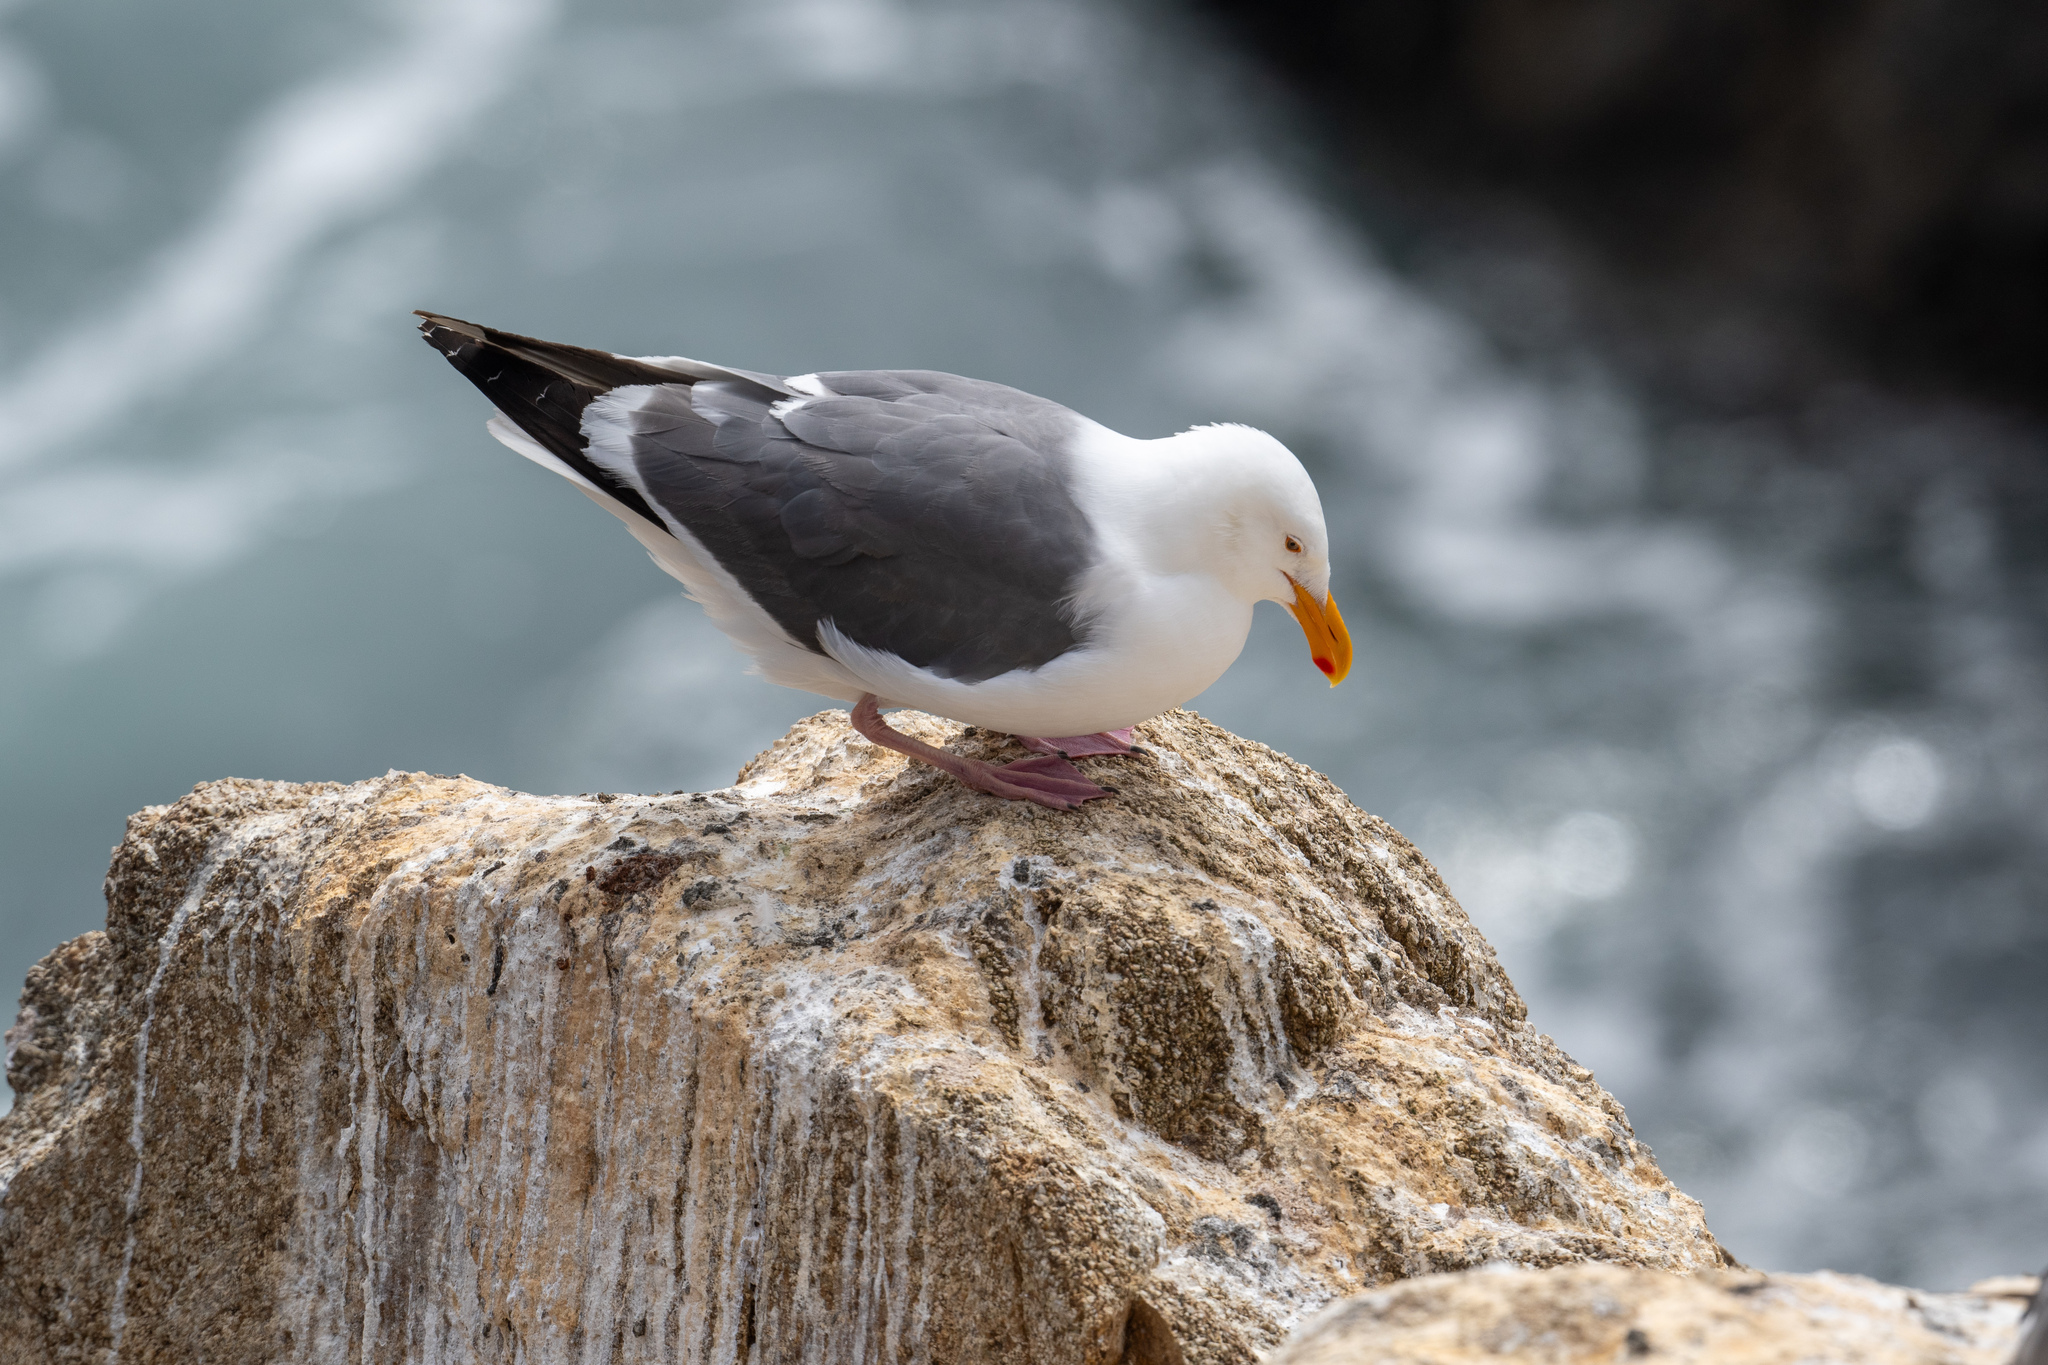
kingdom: Animalia
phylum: Chordata
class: Aves
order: Charadriiformes
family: Laridae
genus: Larus
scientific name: Larus occidentalis
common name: Western gull
